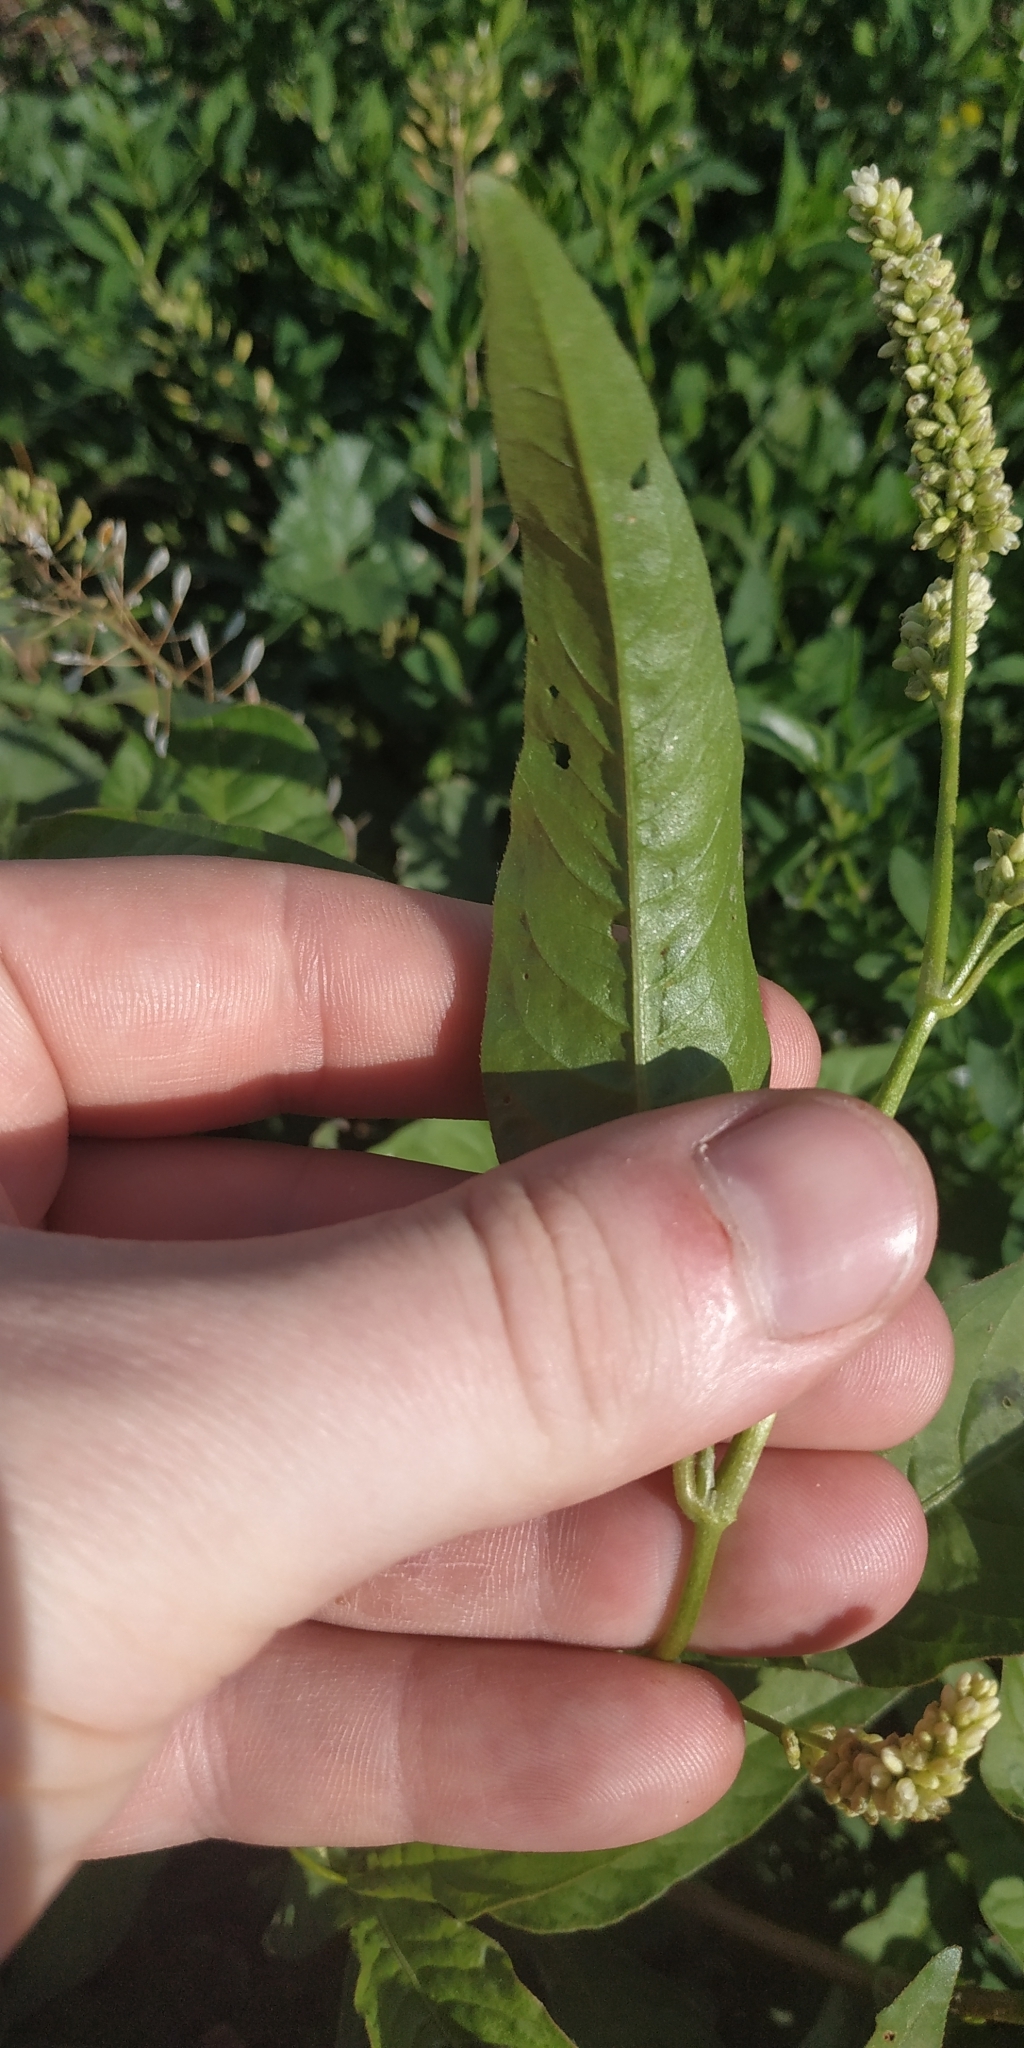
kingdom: Plantae
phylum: Tracheophyta
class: Magnoliopsida
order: Caryophyllales
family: Polygonaceae
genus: Persicaria
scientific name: Persicaria lapathifolia
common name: Curlytop knotweed
